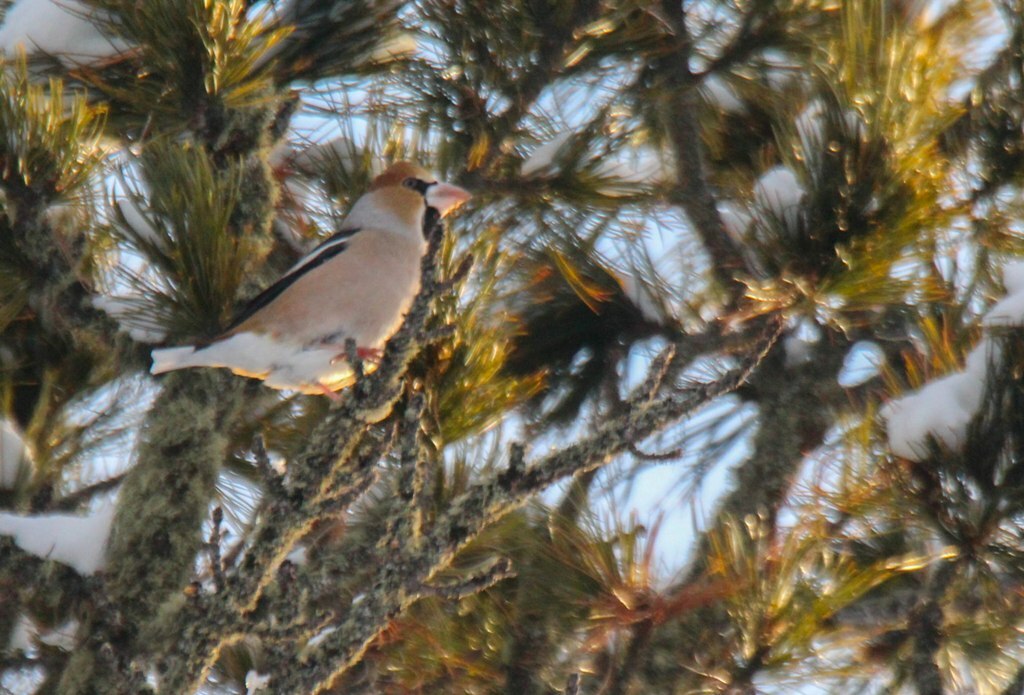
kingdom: Animalia
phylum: Chordata
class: Aves
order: Passeriformes
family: Fringillidae
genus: Coccothraustes
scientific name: Coccothraustes coccothraustes
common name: Hawfinch
